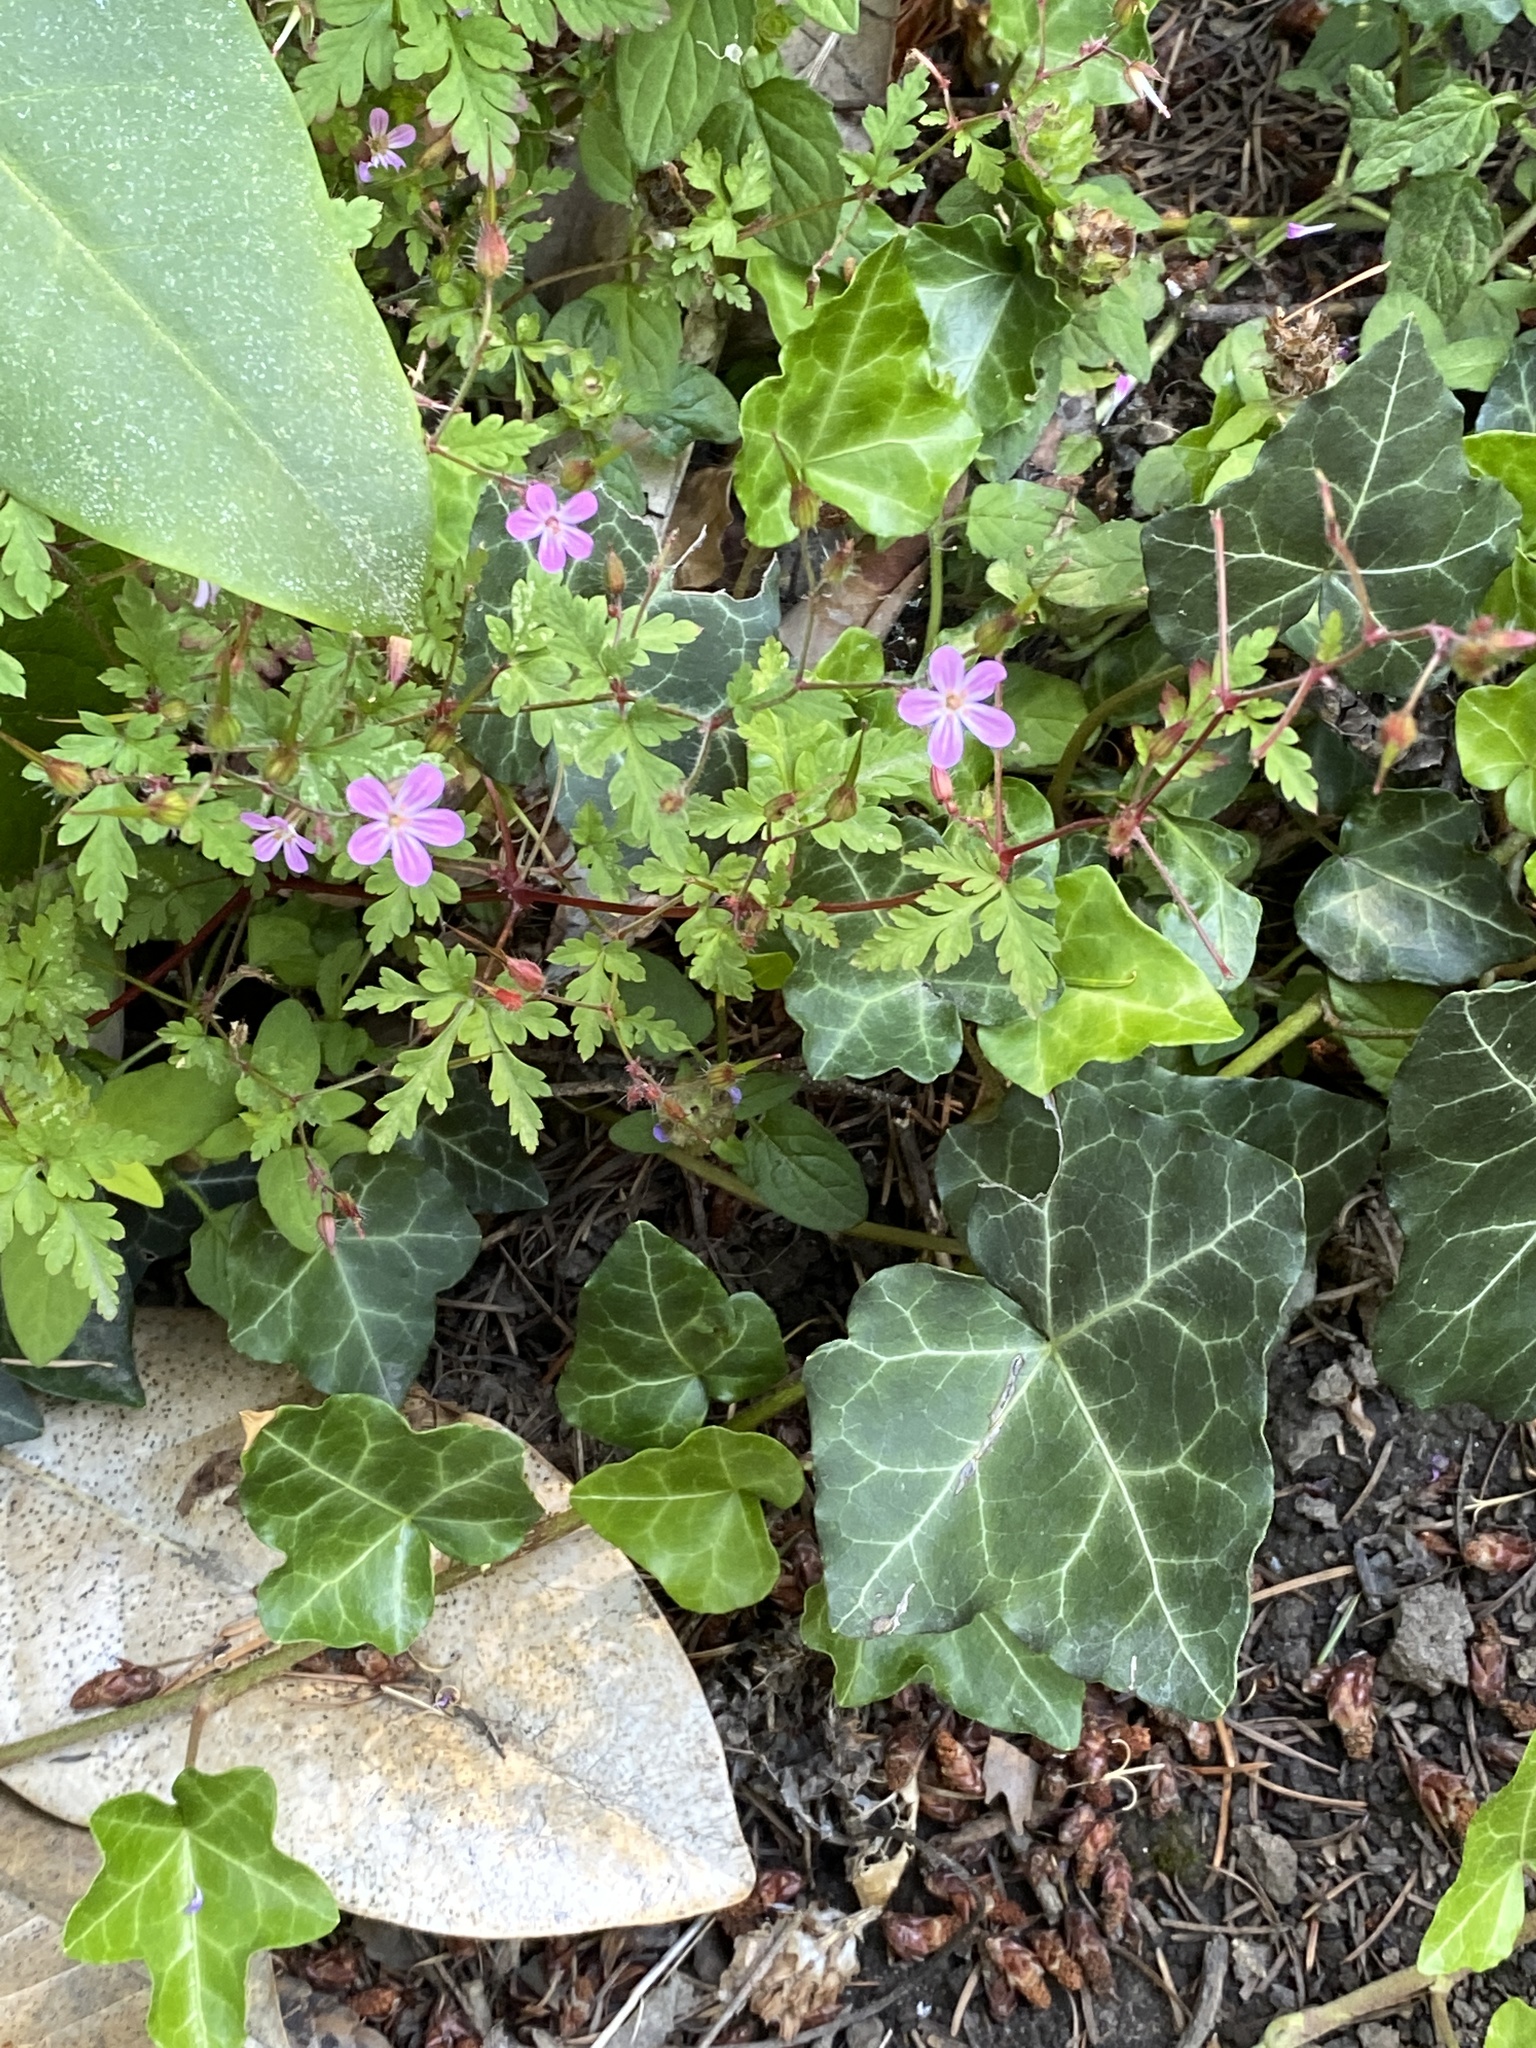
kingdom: Plantae
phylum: Tracheophyta
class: Magnoliopsida
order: Geraniales
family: Geraniaceae
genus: Geranium
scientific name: Geranium robertianum
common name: Herb-robert
